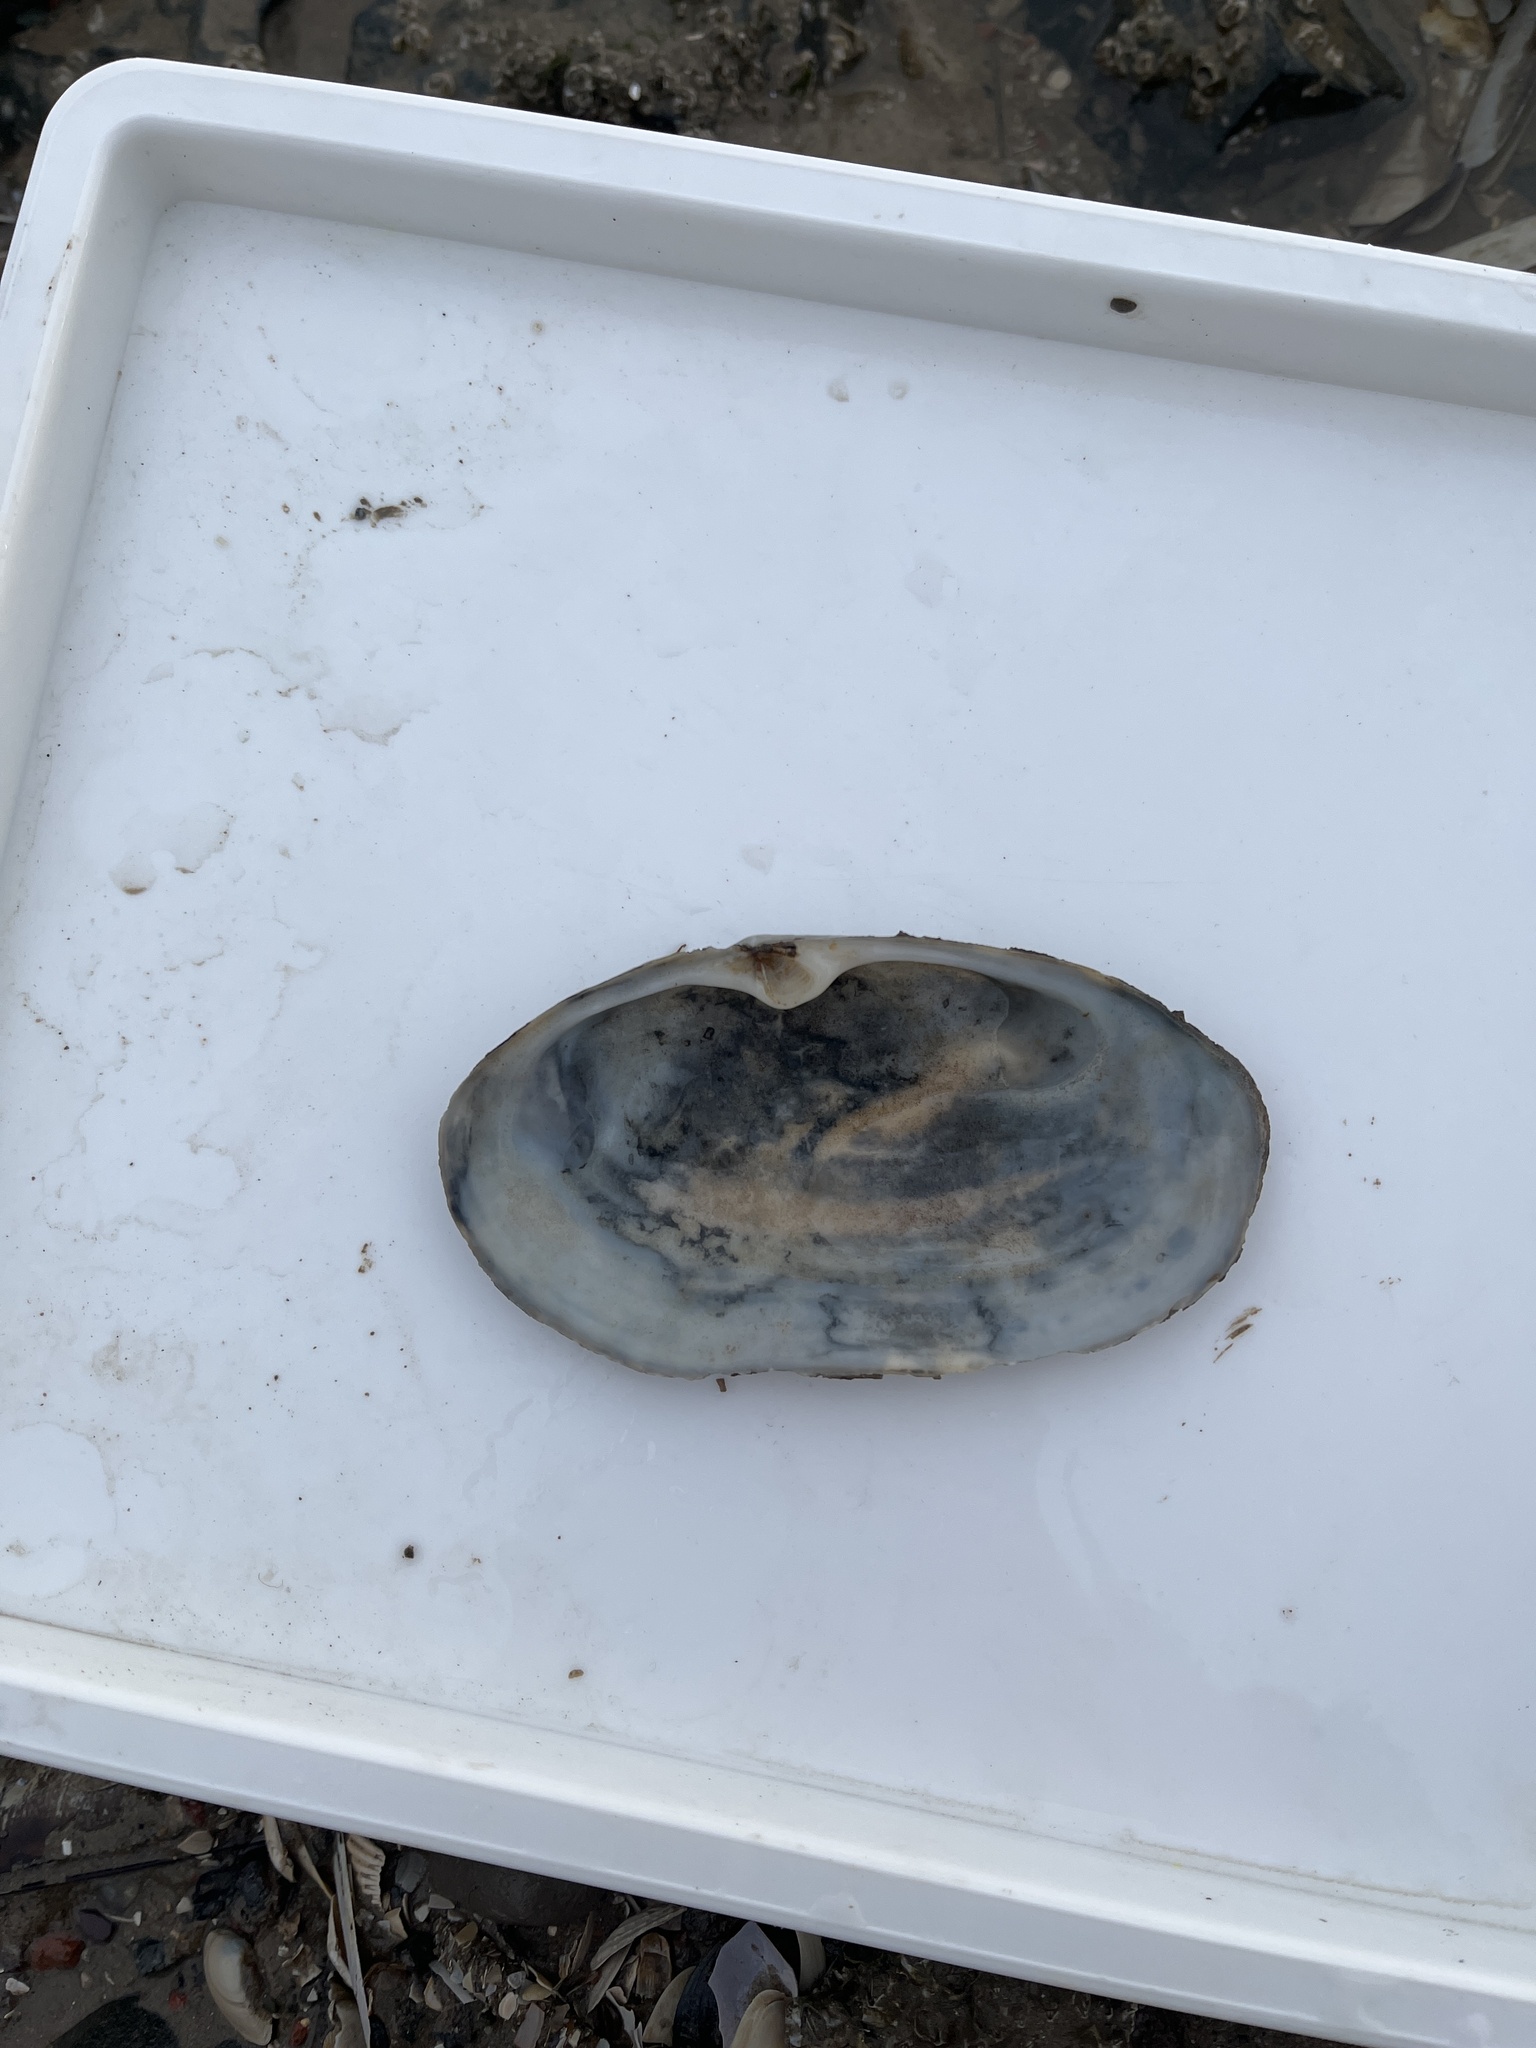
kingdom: Animalia
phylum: Mollusca
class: Bivalvia
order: Venerida
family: Mactridae
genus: Lutraria
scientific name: Lutraria lutraria
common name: Common otter shell
